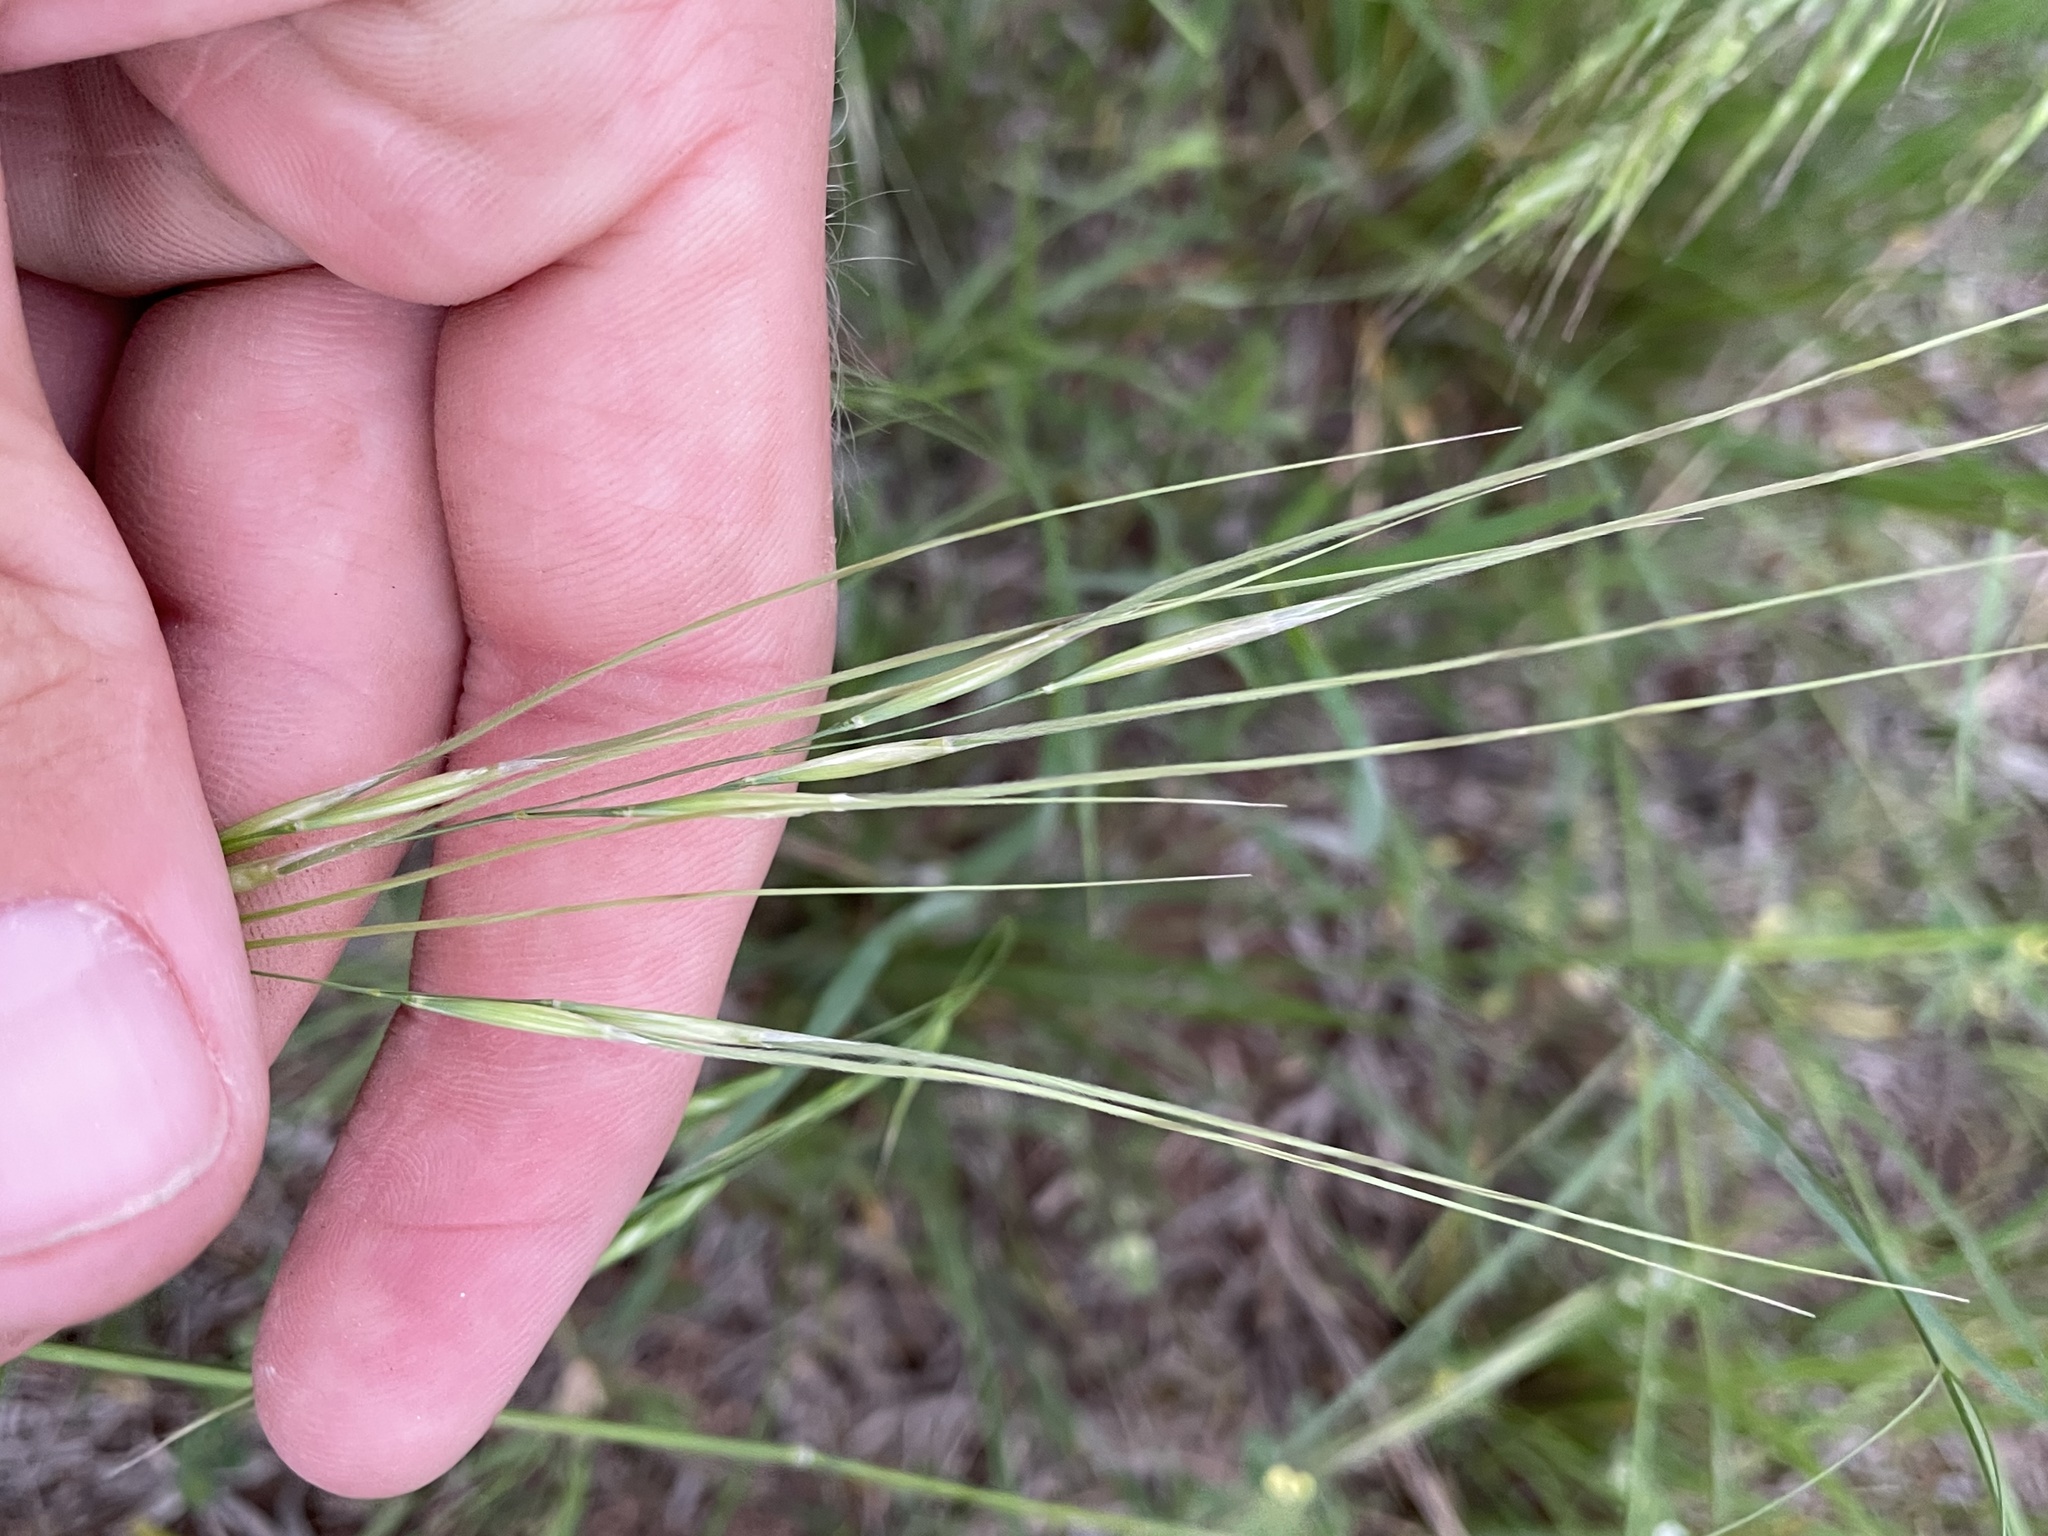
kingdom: Plantae
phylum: Tracheophyta
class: Liliopsida
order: Poales
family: Poaceae
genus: Nassella
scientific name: Nassella leucotricha
